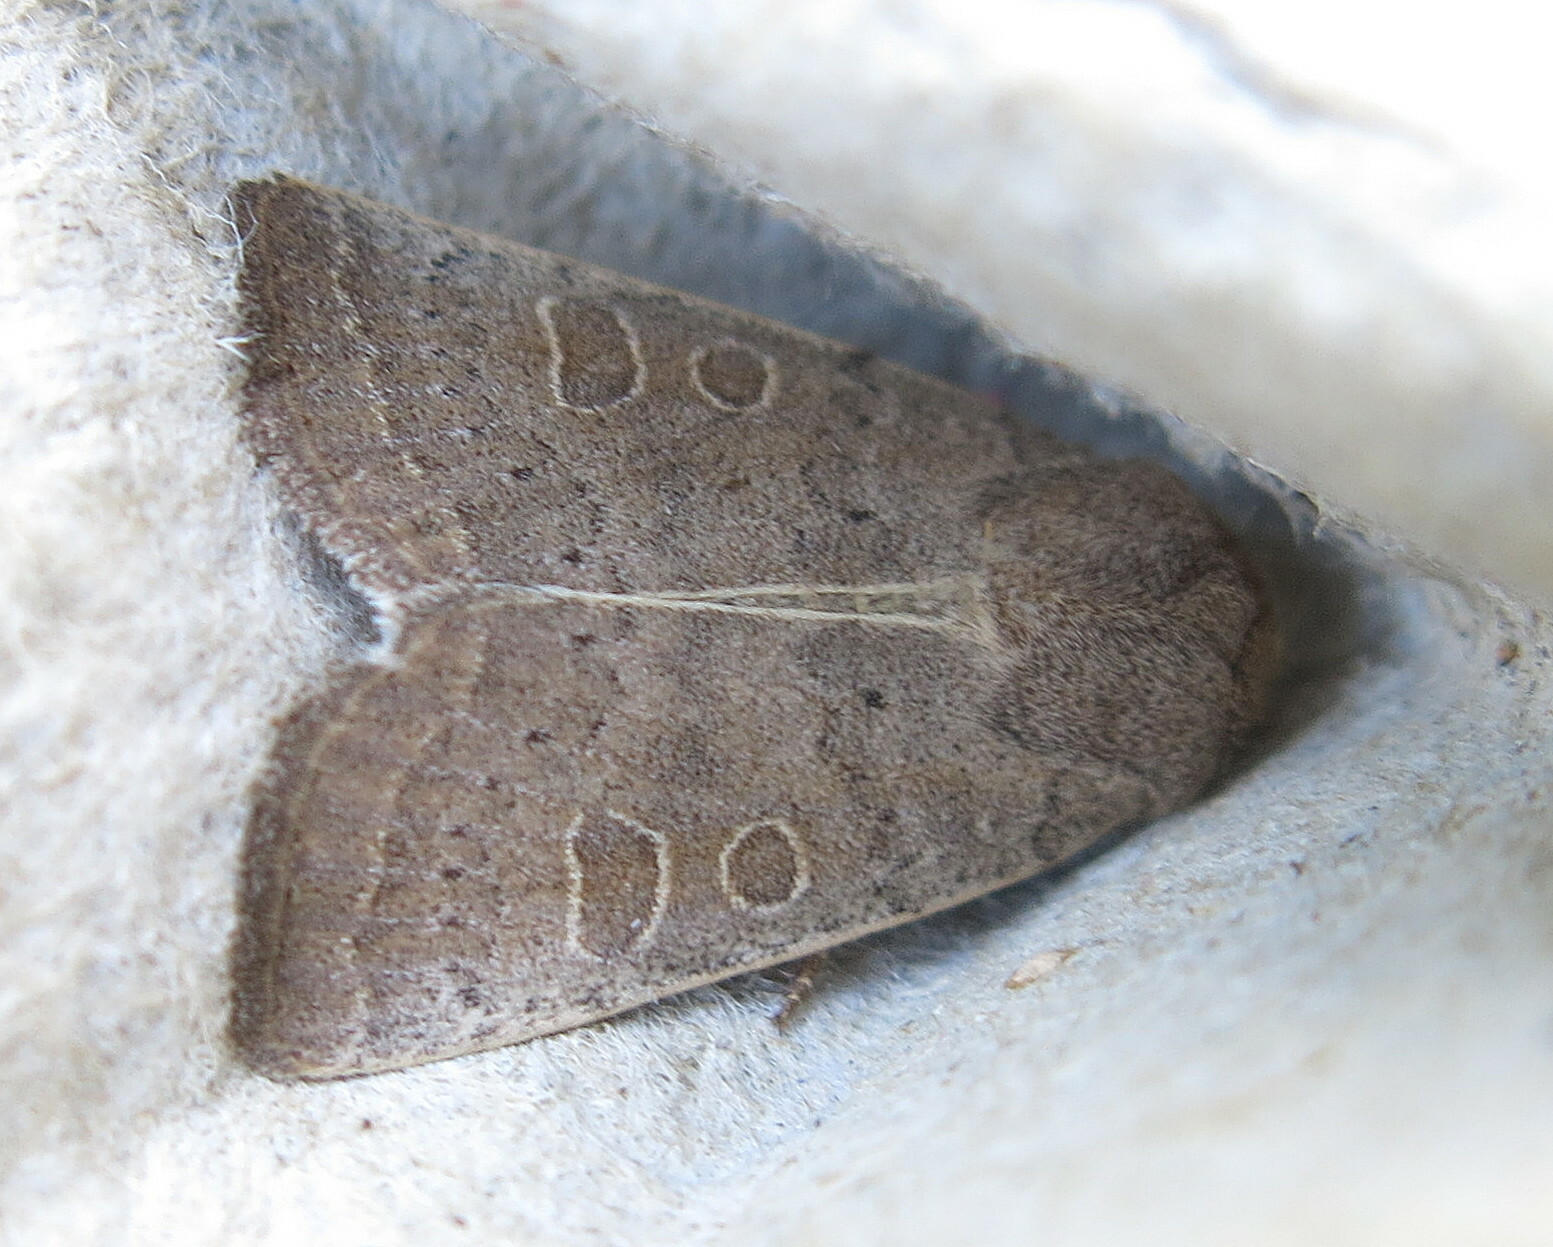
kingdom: Animalia
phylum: Arthropoda
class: Insecta
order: Lepidoptera
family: Noctuidae
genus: Hoplodrina
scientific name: Hoplodrina ambigua
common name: Vine's rustic
